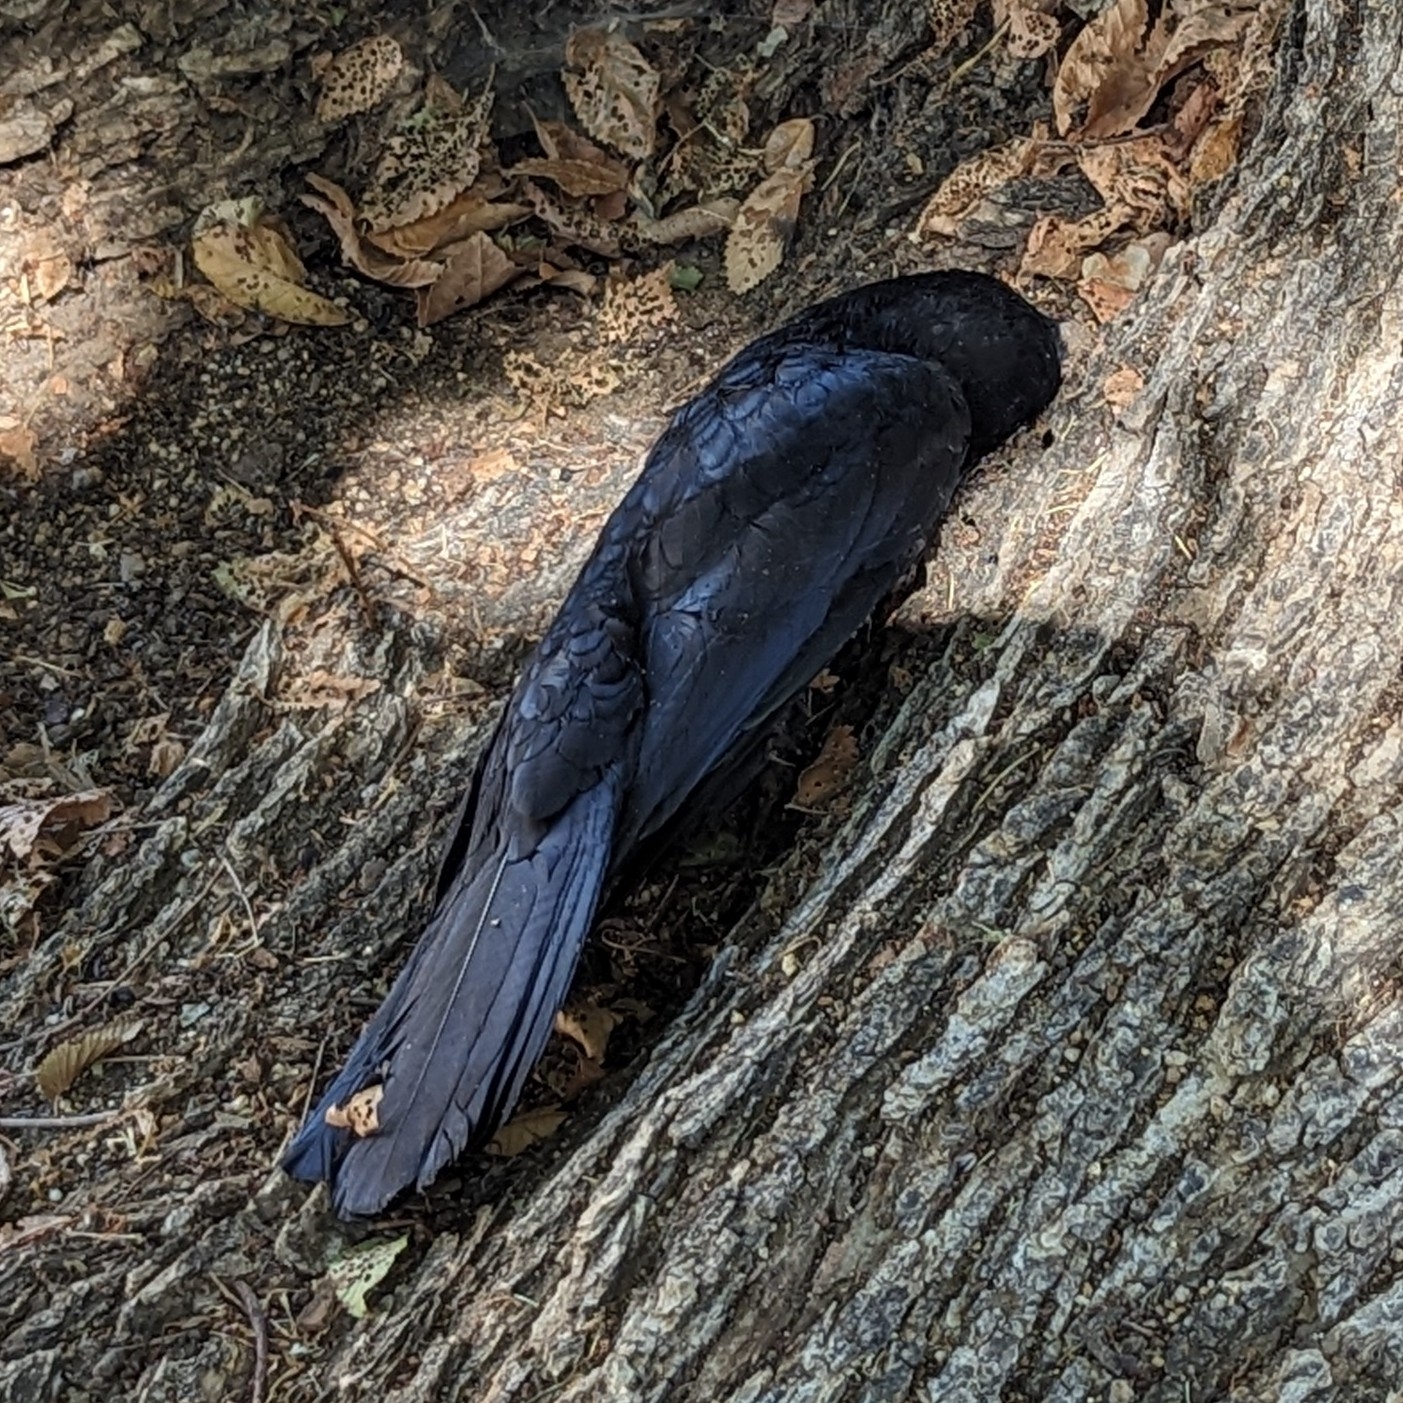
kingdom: Animalia
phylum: Chordata
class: Aves
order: Passeriformes
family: Icteridae
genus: Quiscalus
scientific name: Quiscalus mexicanus
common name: Great-tailed grackle
